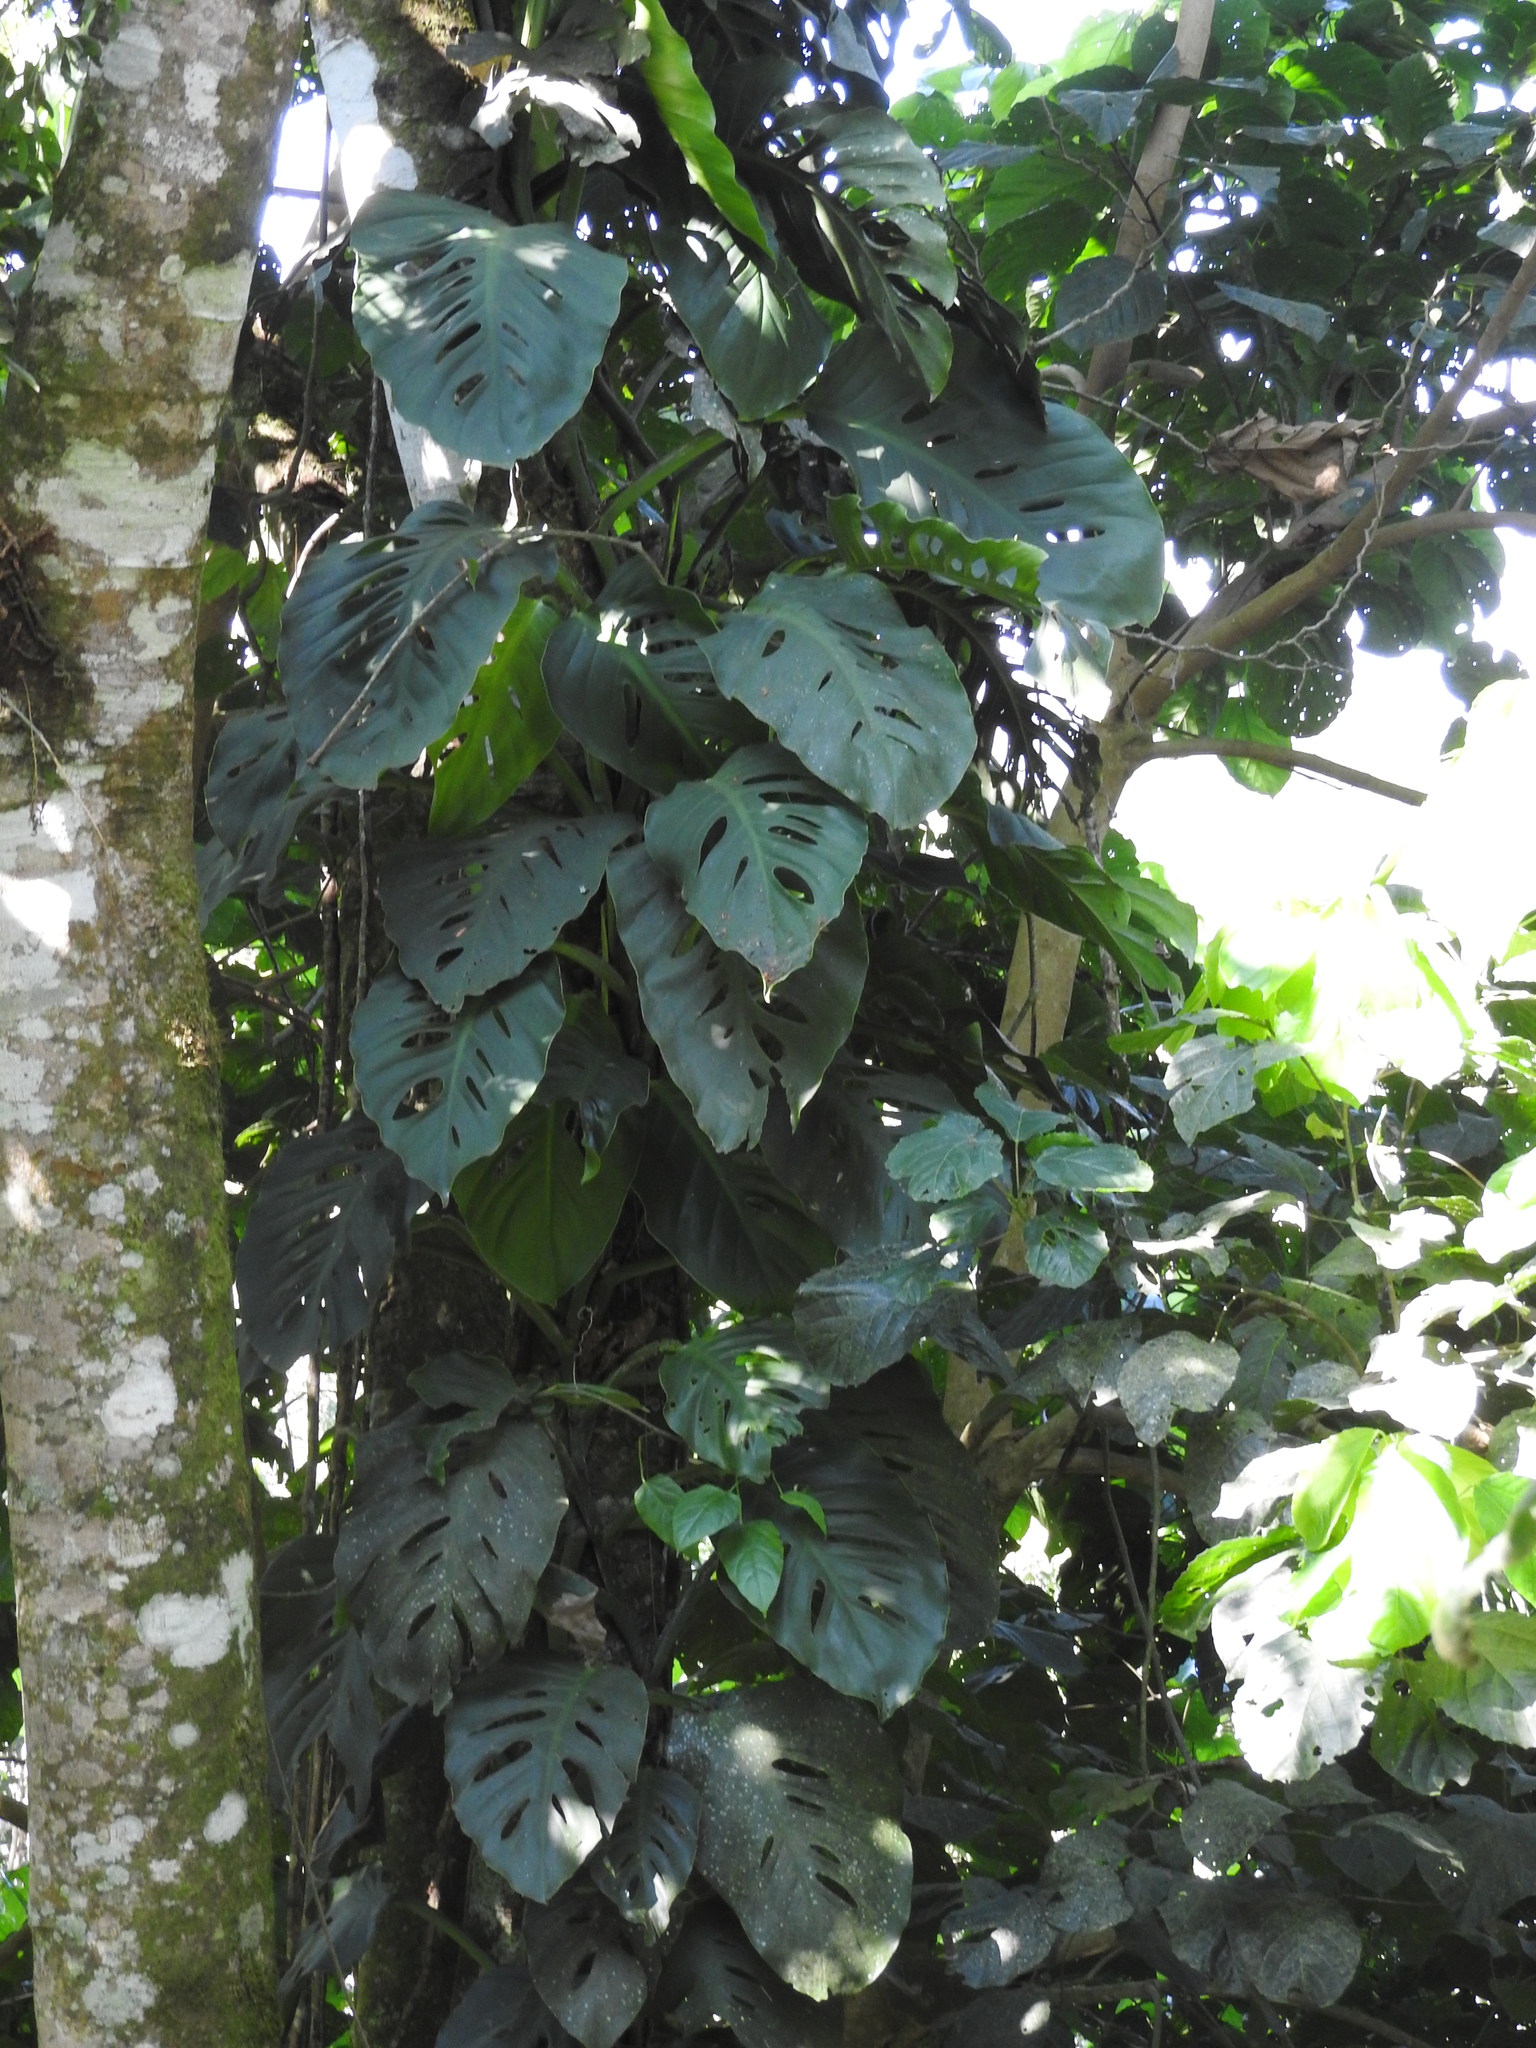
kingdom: Plantae
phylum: Tracheophyta
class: Liliopsida
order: Alismatales
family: Araceae
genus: Monstera
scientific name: Monstera acuminata
